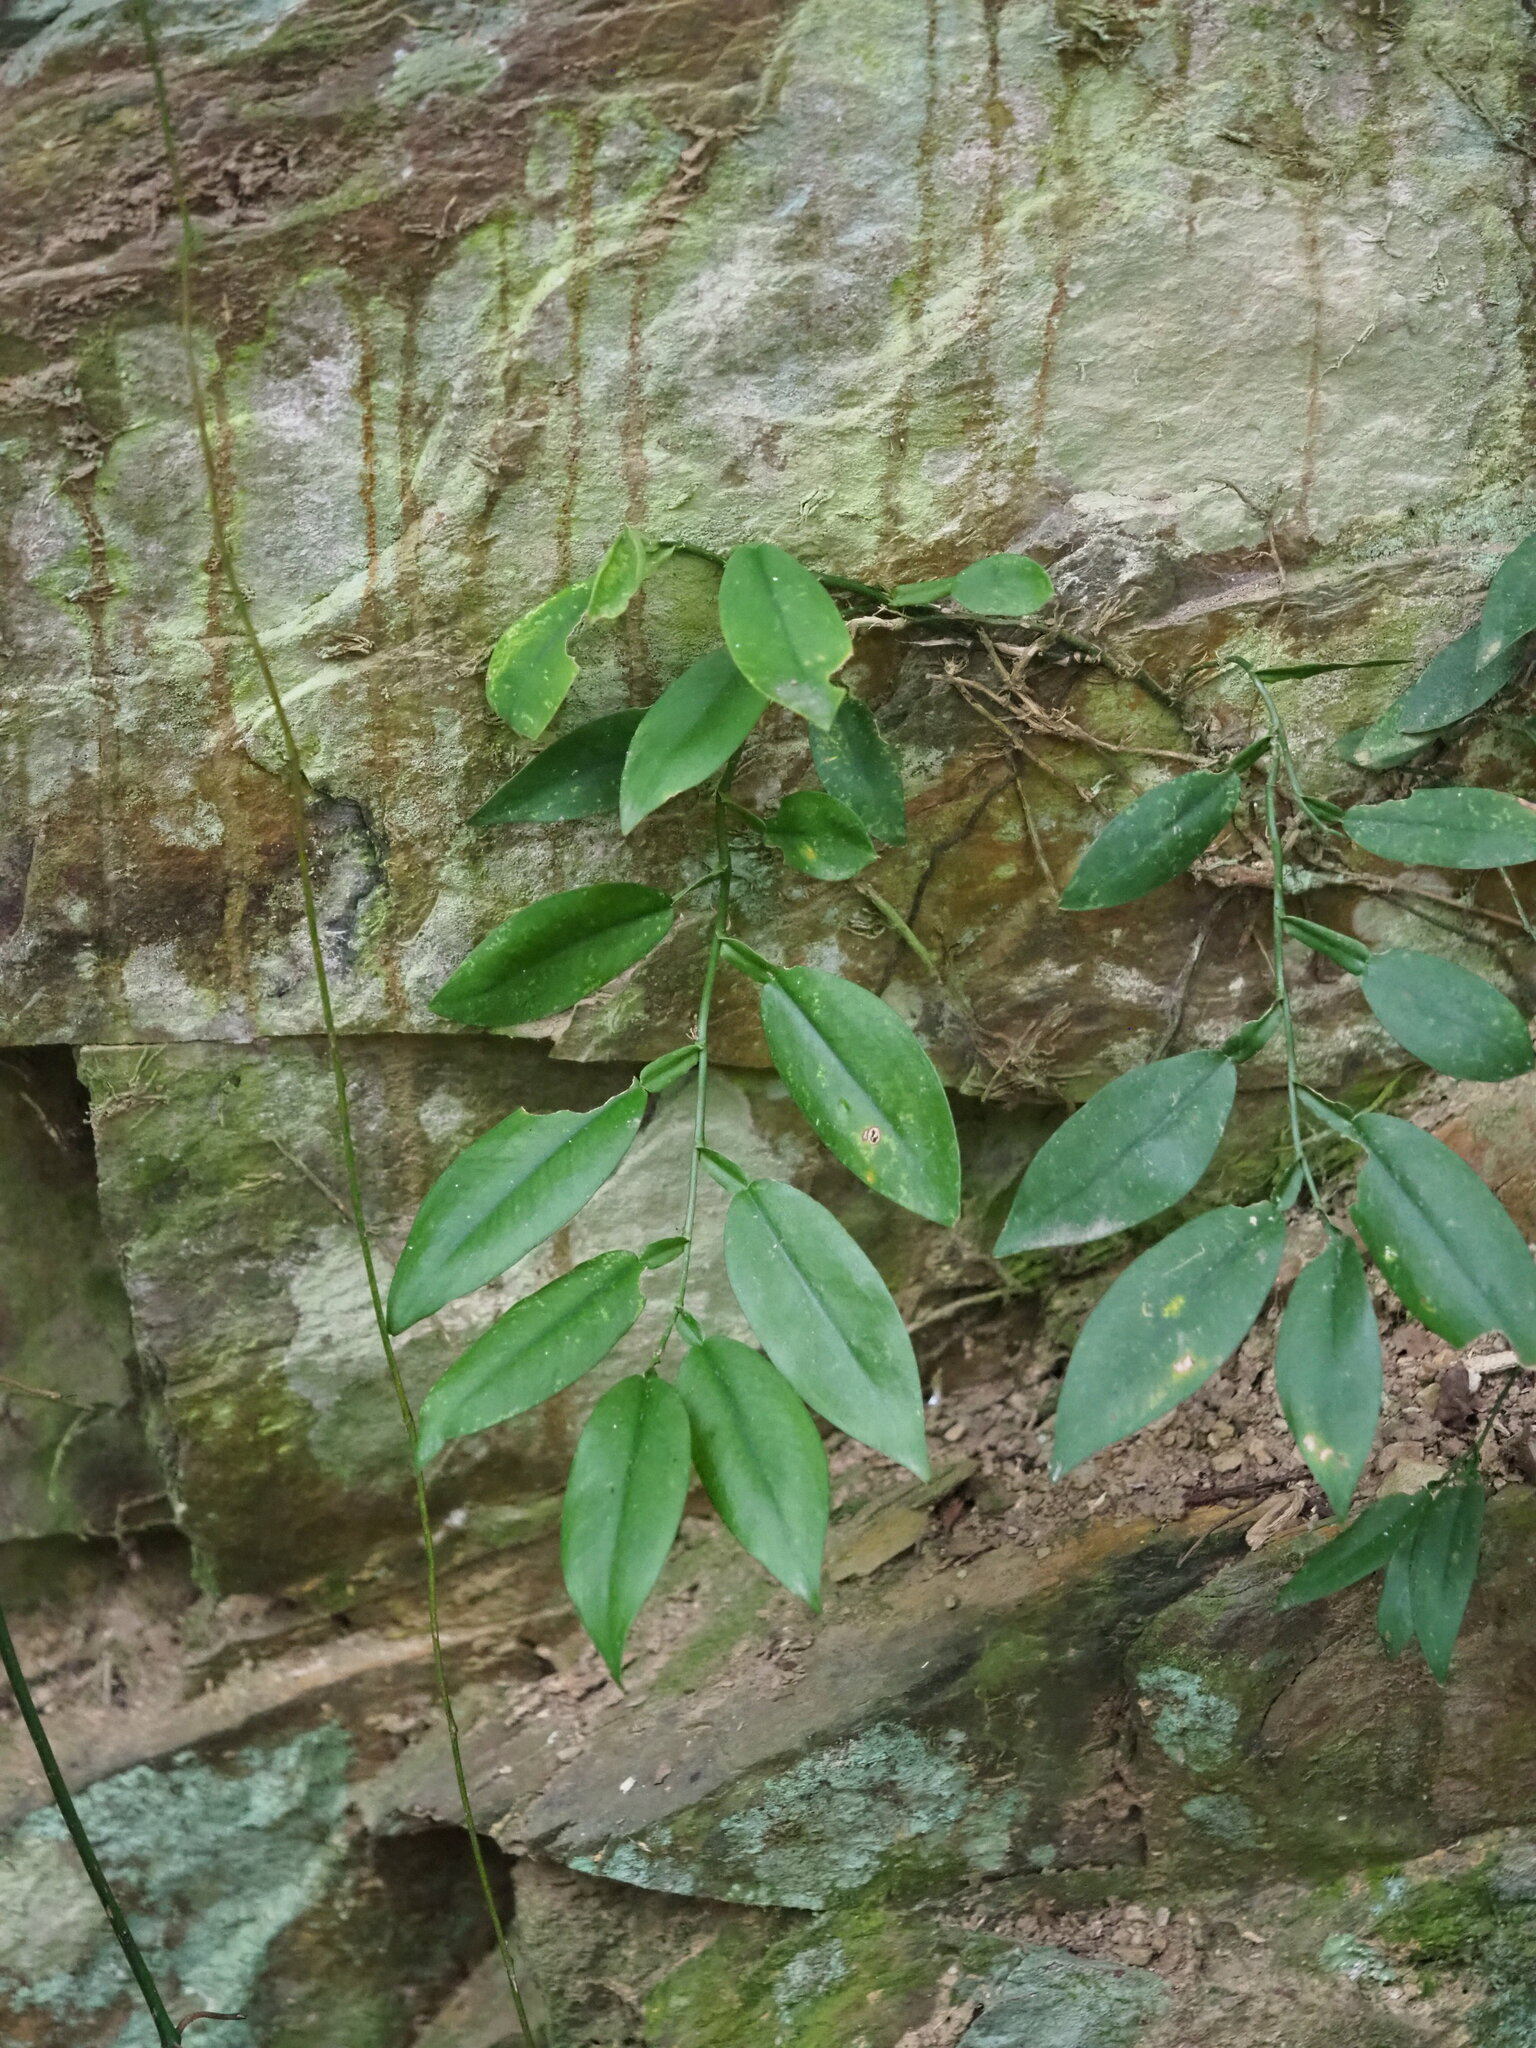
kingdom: Plantae
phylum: Tracheophyta
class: Liliopsida
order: Alismatales
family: Araceae
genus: Pothos
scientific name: Pothos chinensis
